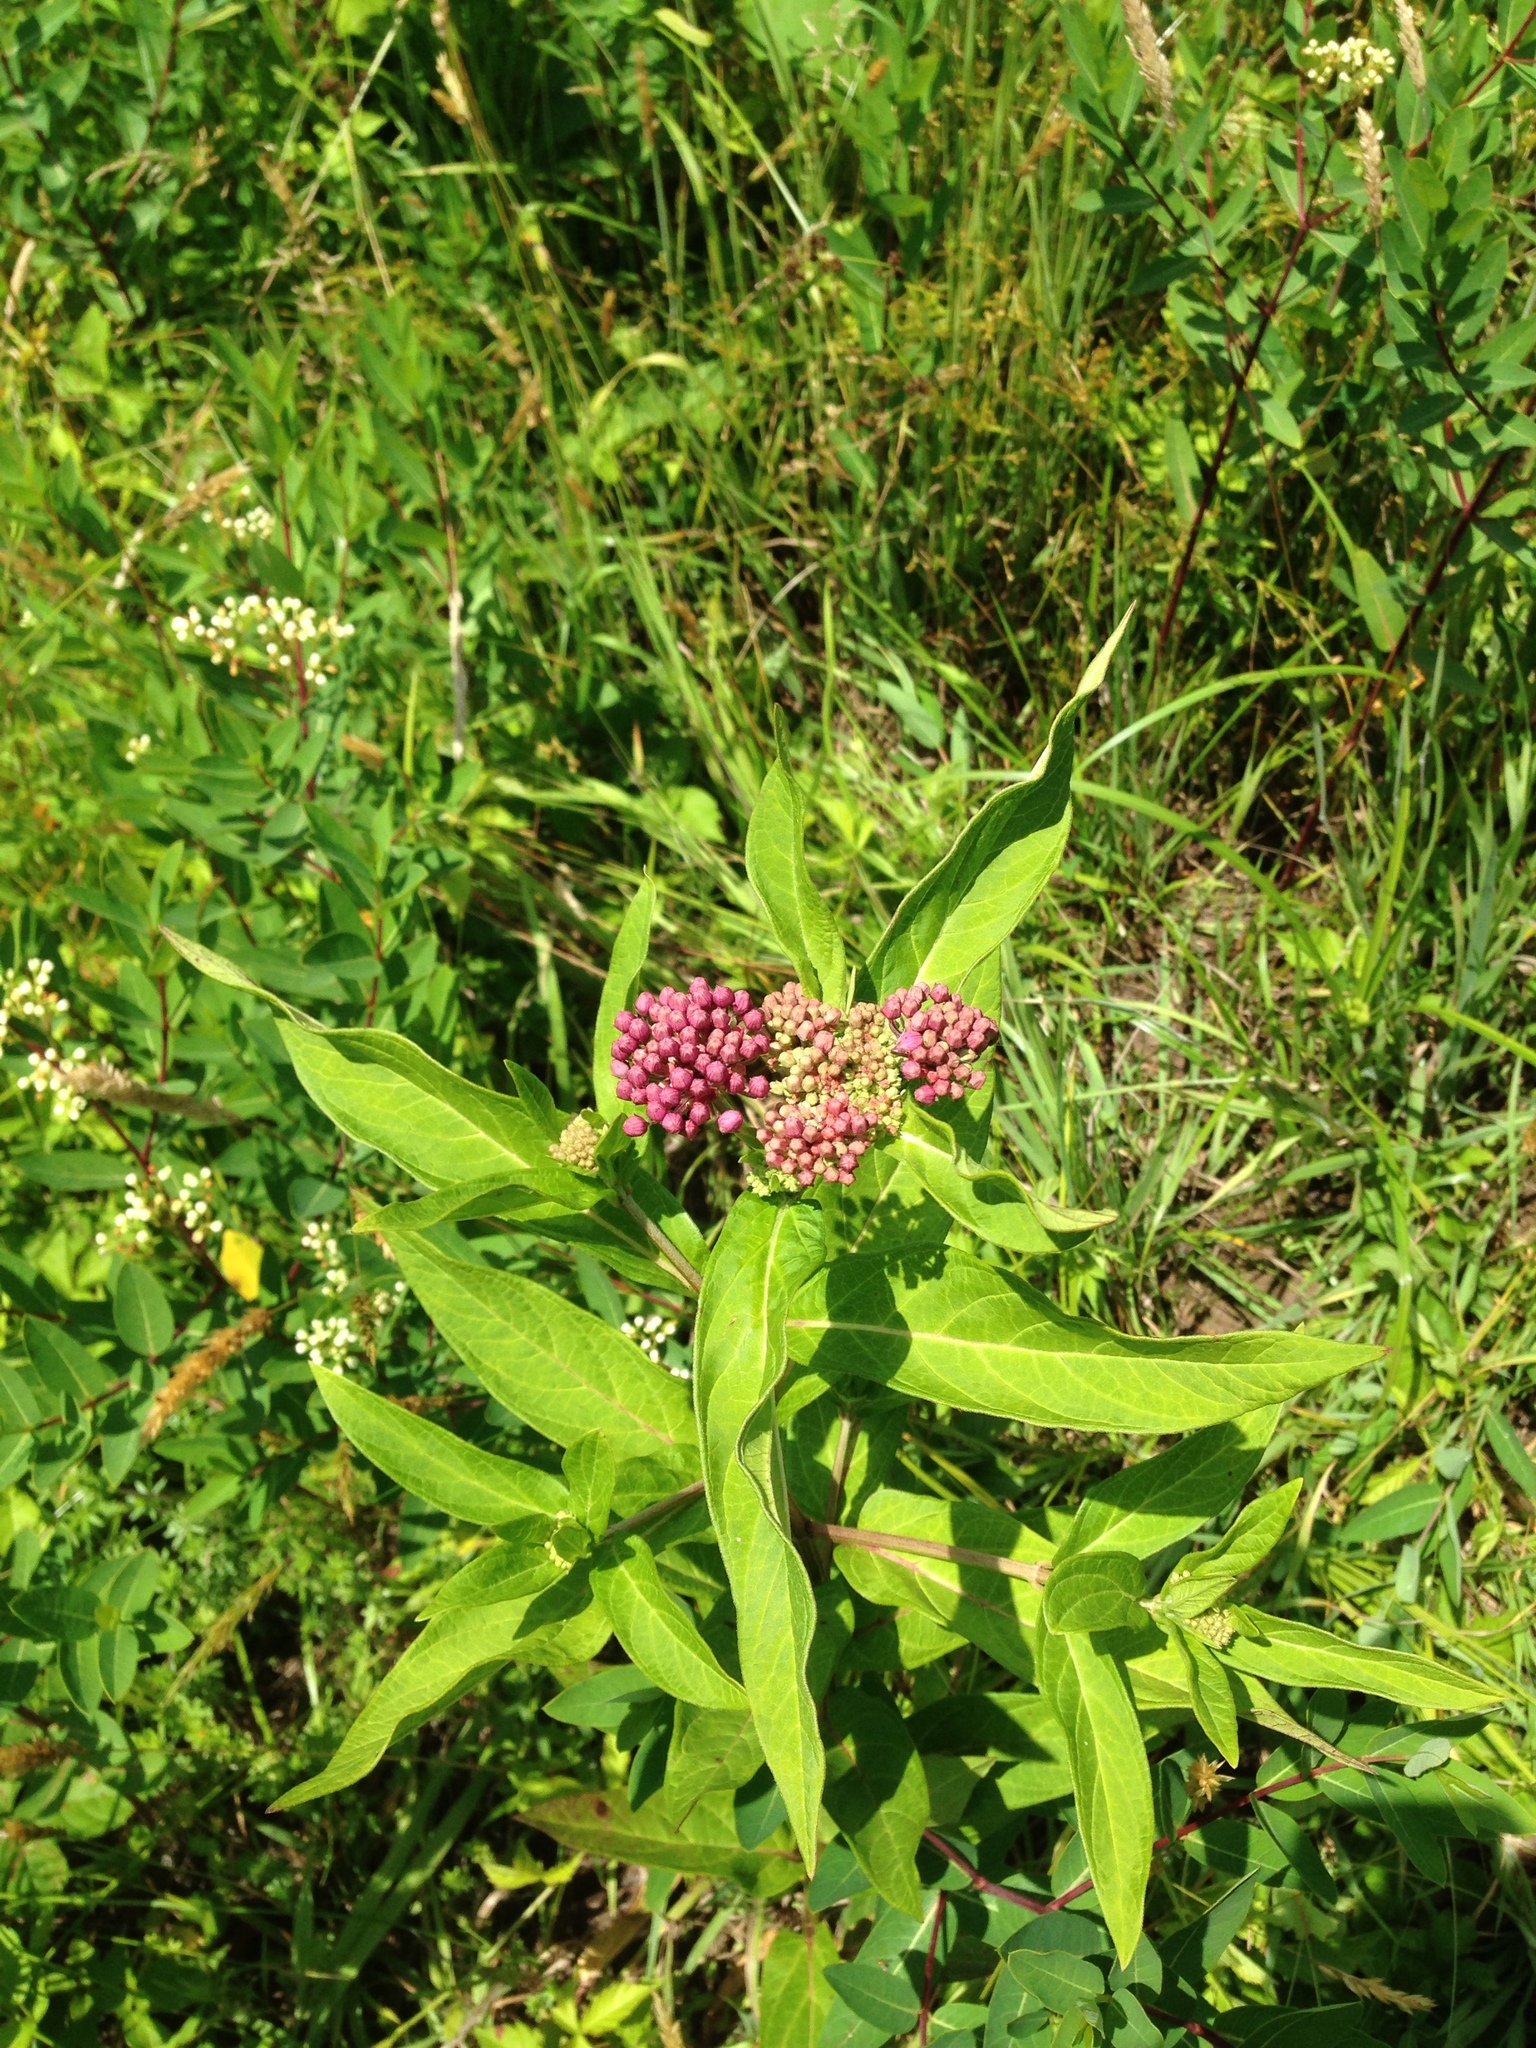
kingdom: Plantae
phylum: Tracheophyta
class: Magnoliopsida
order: Gentianales
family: Apocynaceae
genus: Asclepias
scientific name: Asclepias incarnata
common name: Swamp milkweed
